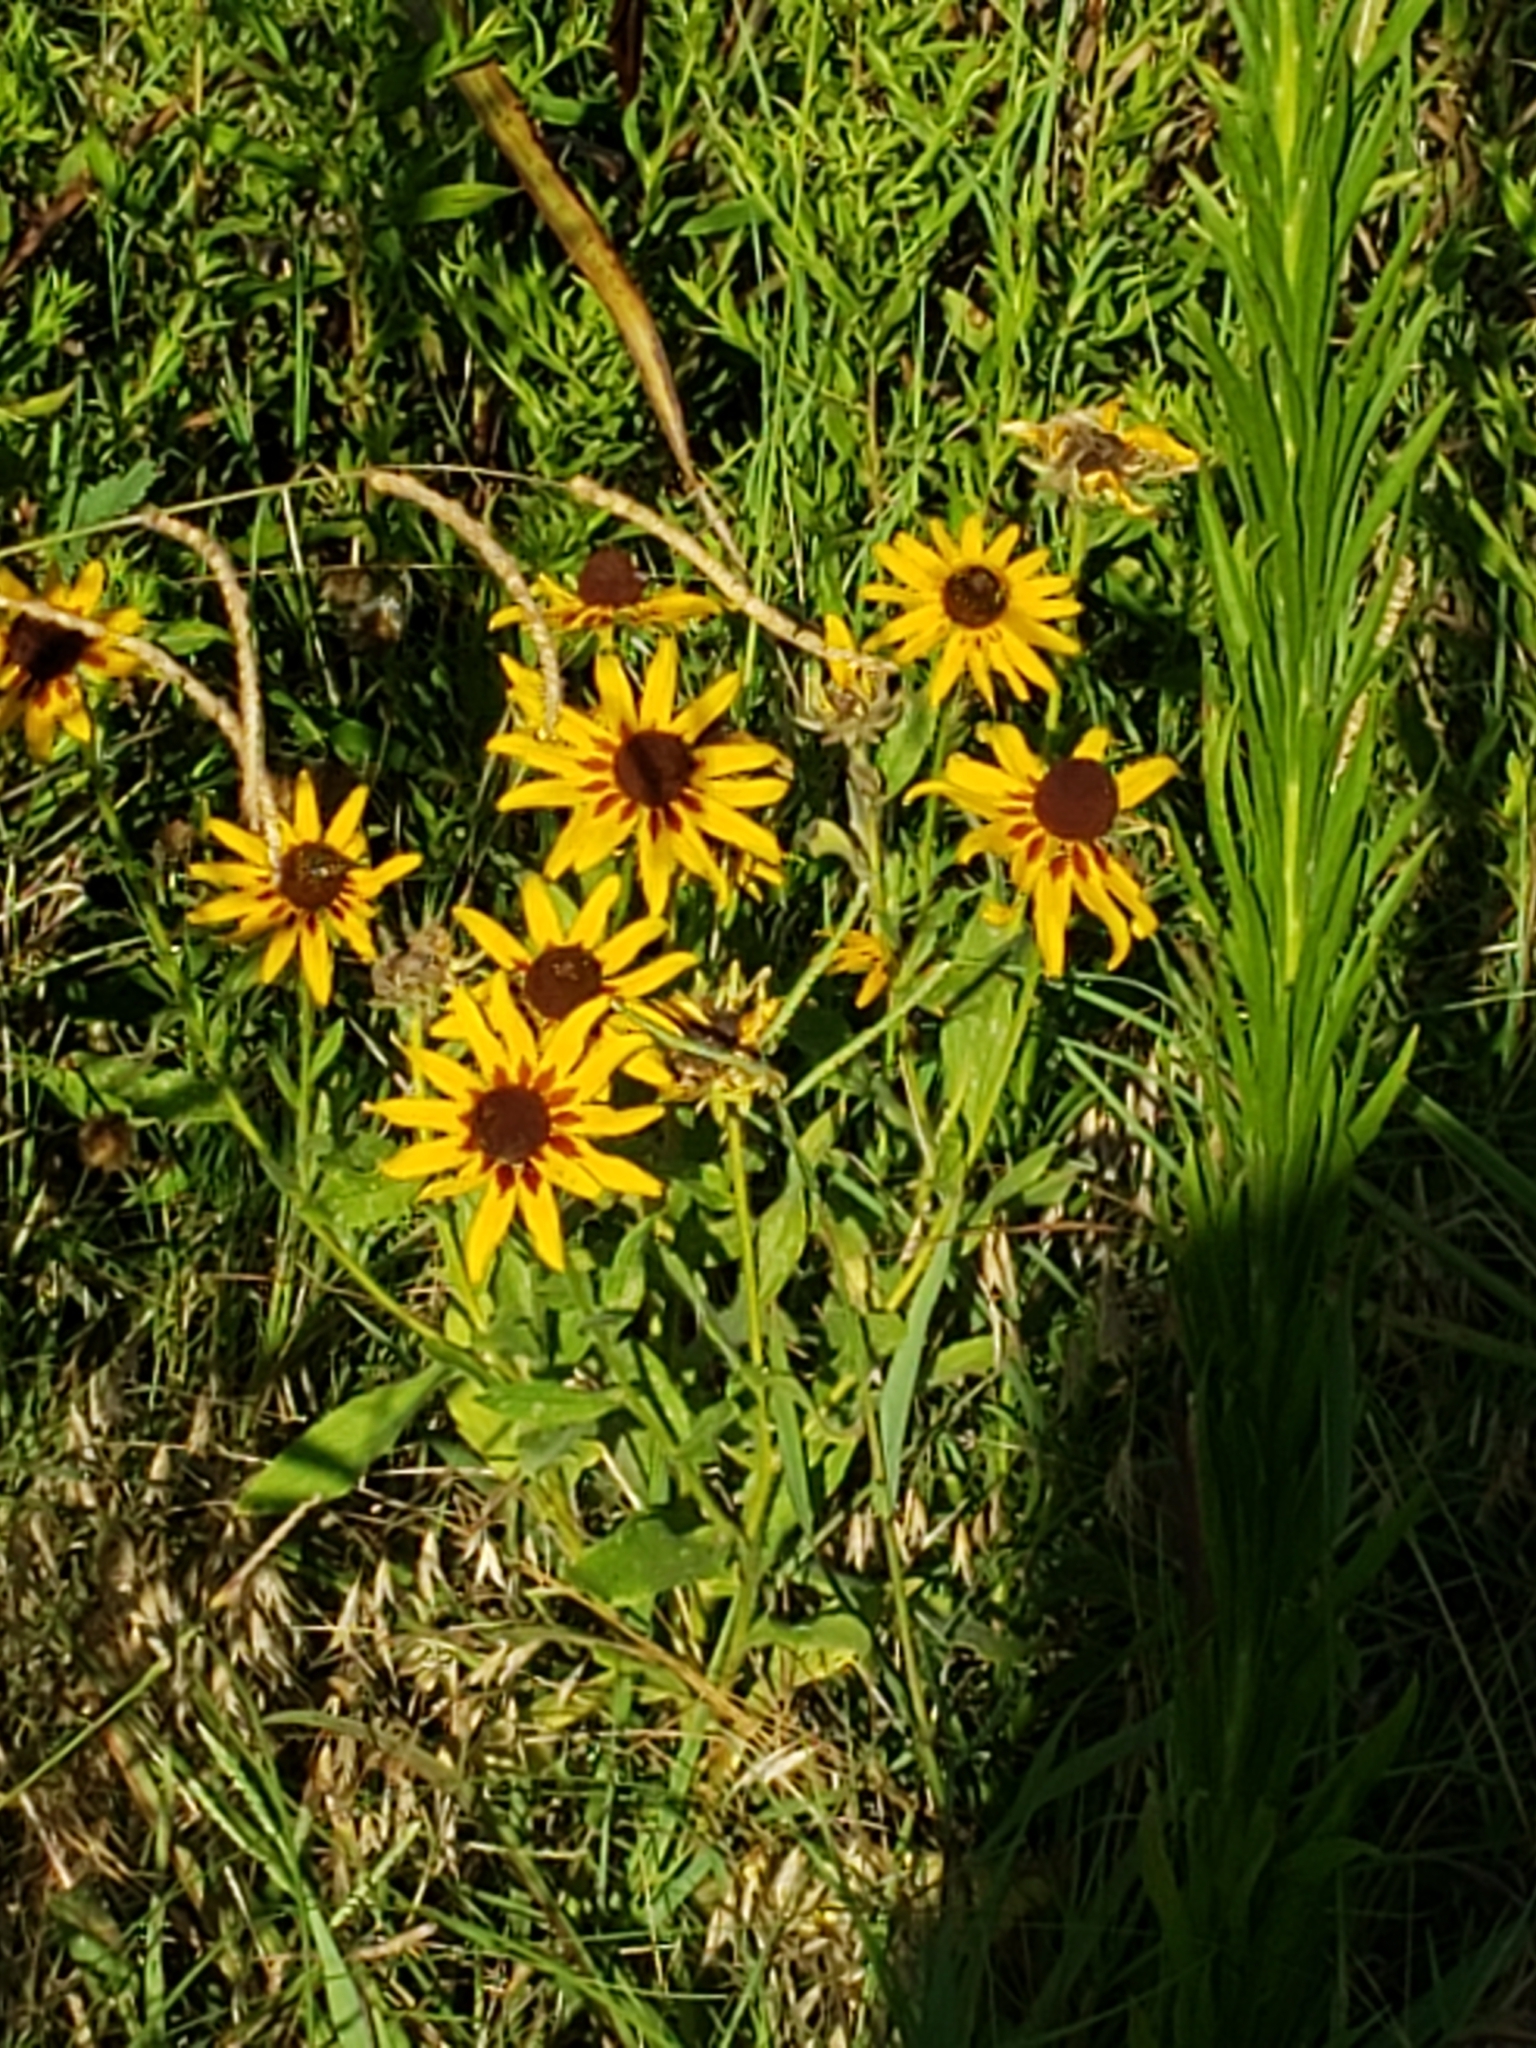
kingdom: Plantae
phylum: Tracheophyta
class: Magnoliopsida
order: Asterales
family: Asteraceae
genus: Rudbeckia
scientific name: Rudbeckia hirta
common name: Black-eyed-susan
